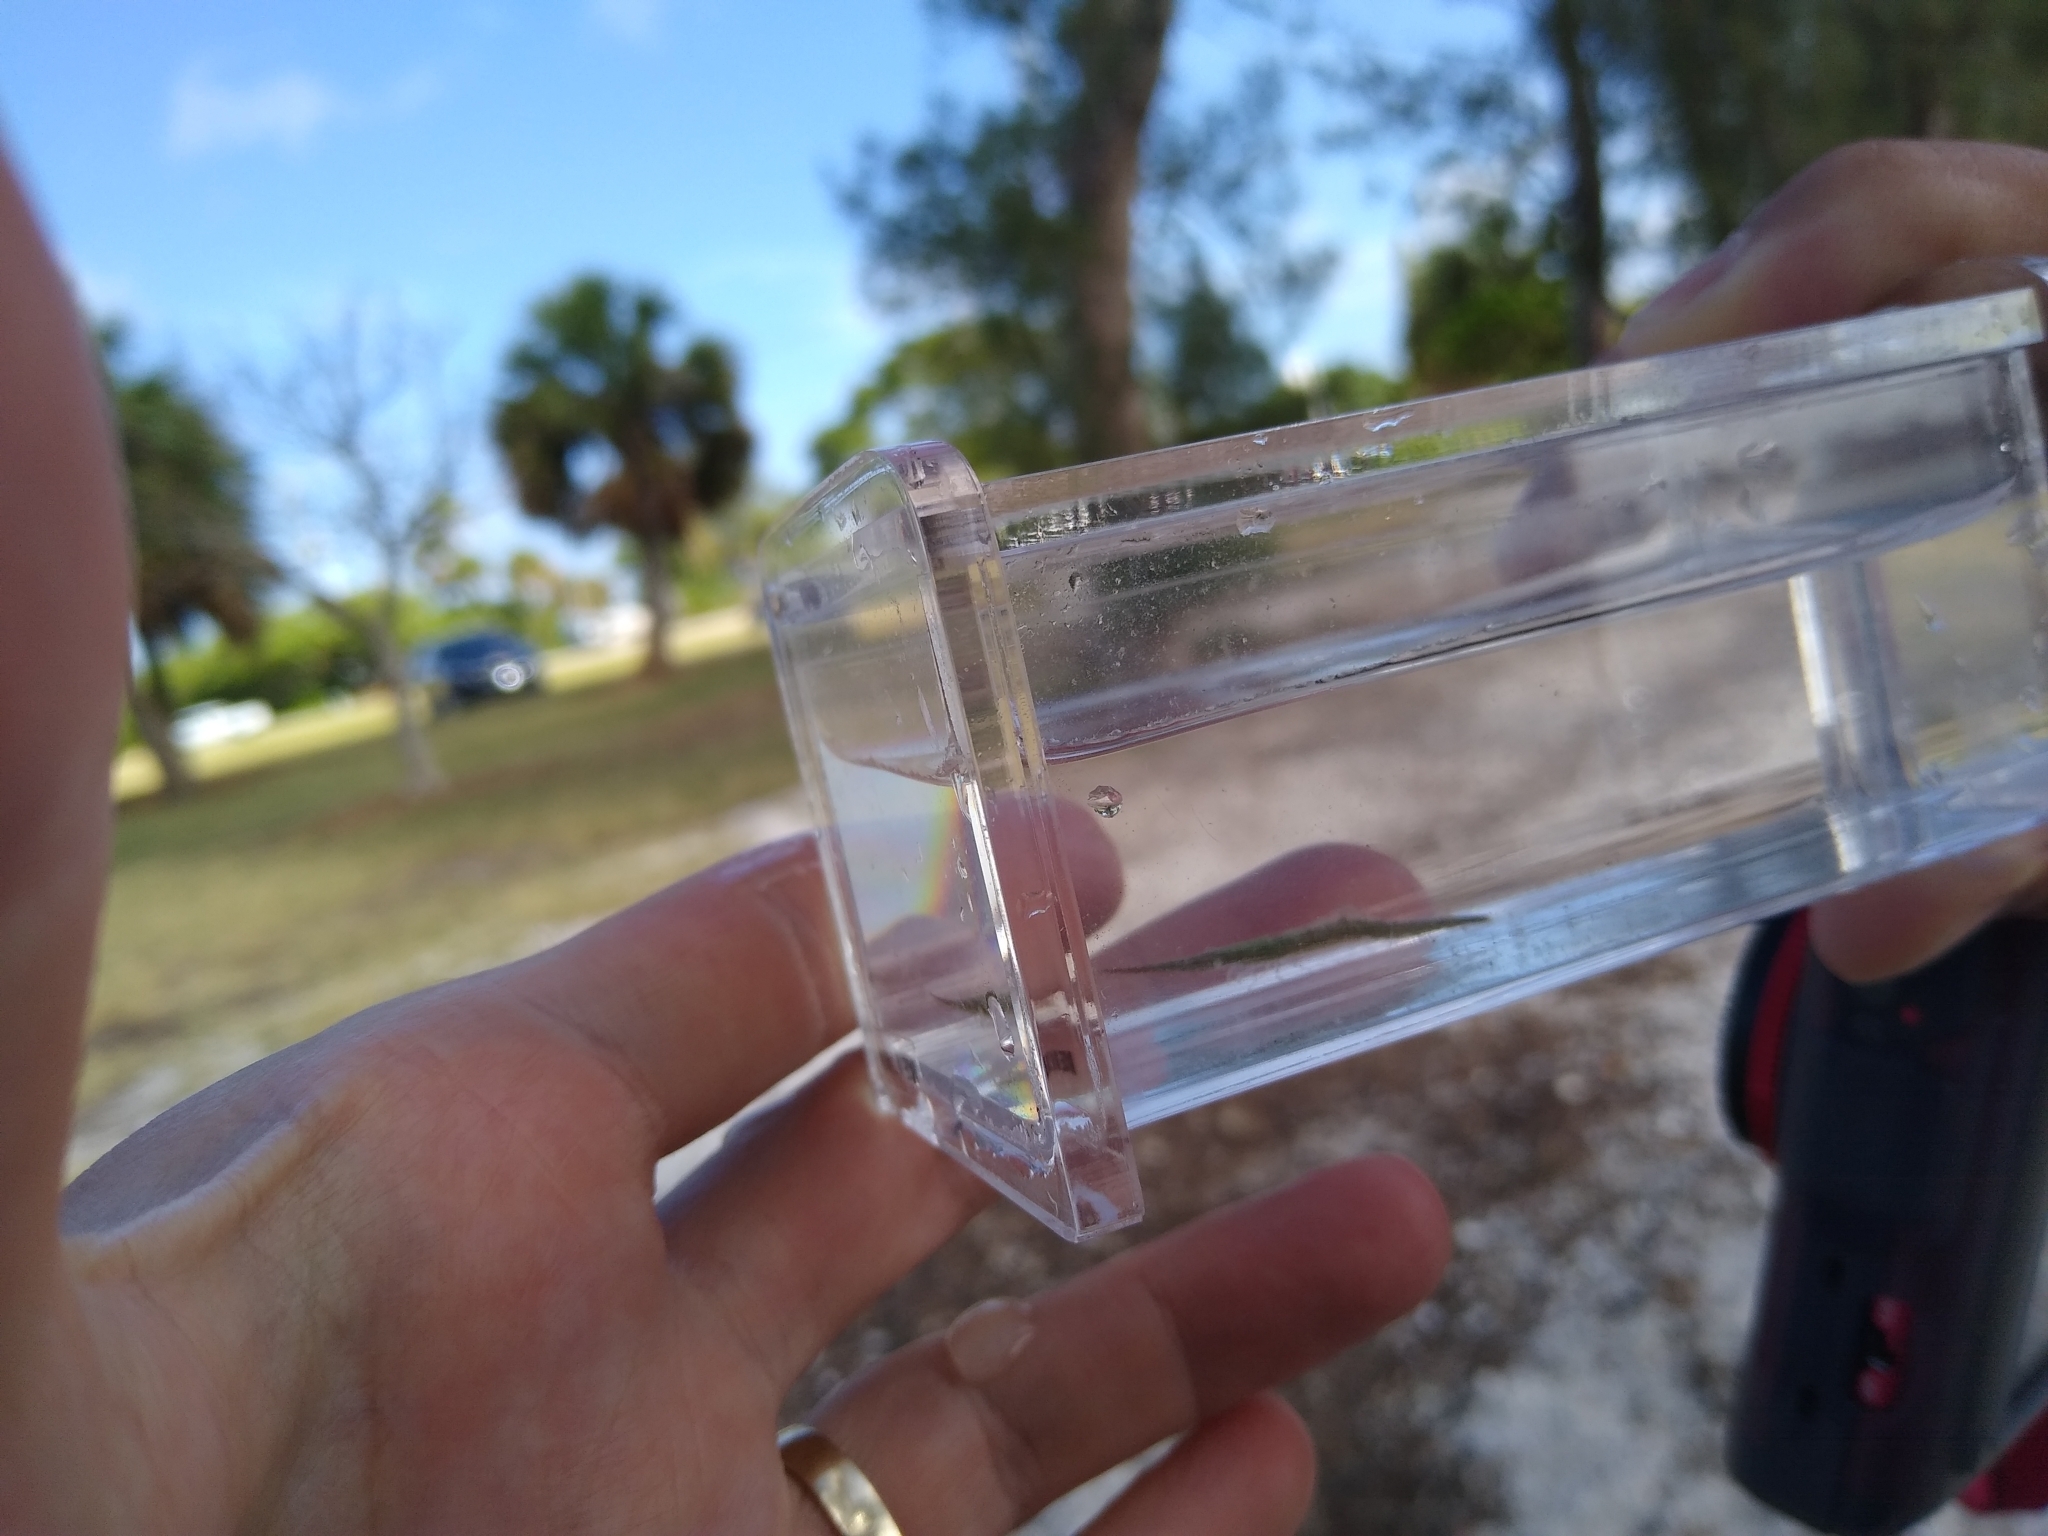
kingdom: Animalia
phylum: Arthropoda
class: Malacostraca
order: Decapoda
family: Hippolytidae
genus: Tozeuma
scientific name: Tozeuma carolinense
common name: Arrow shrimp
